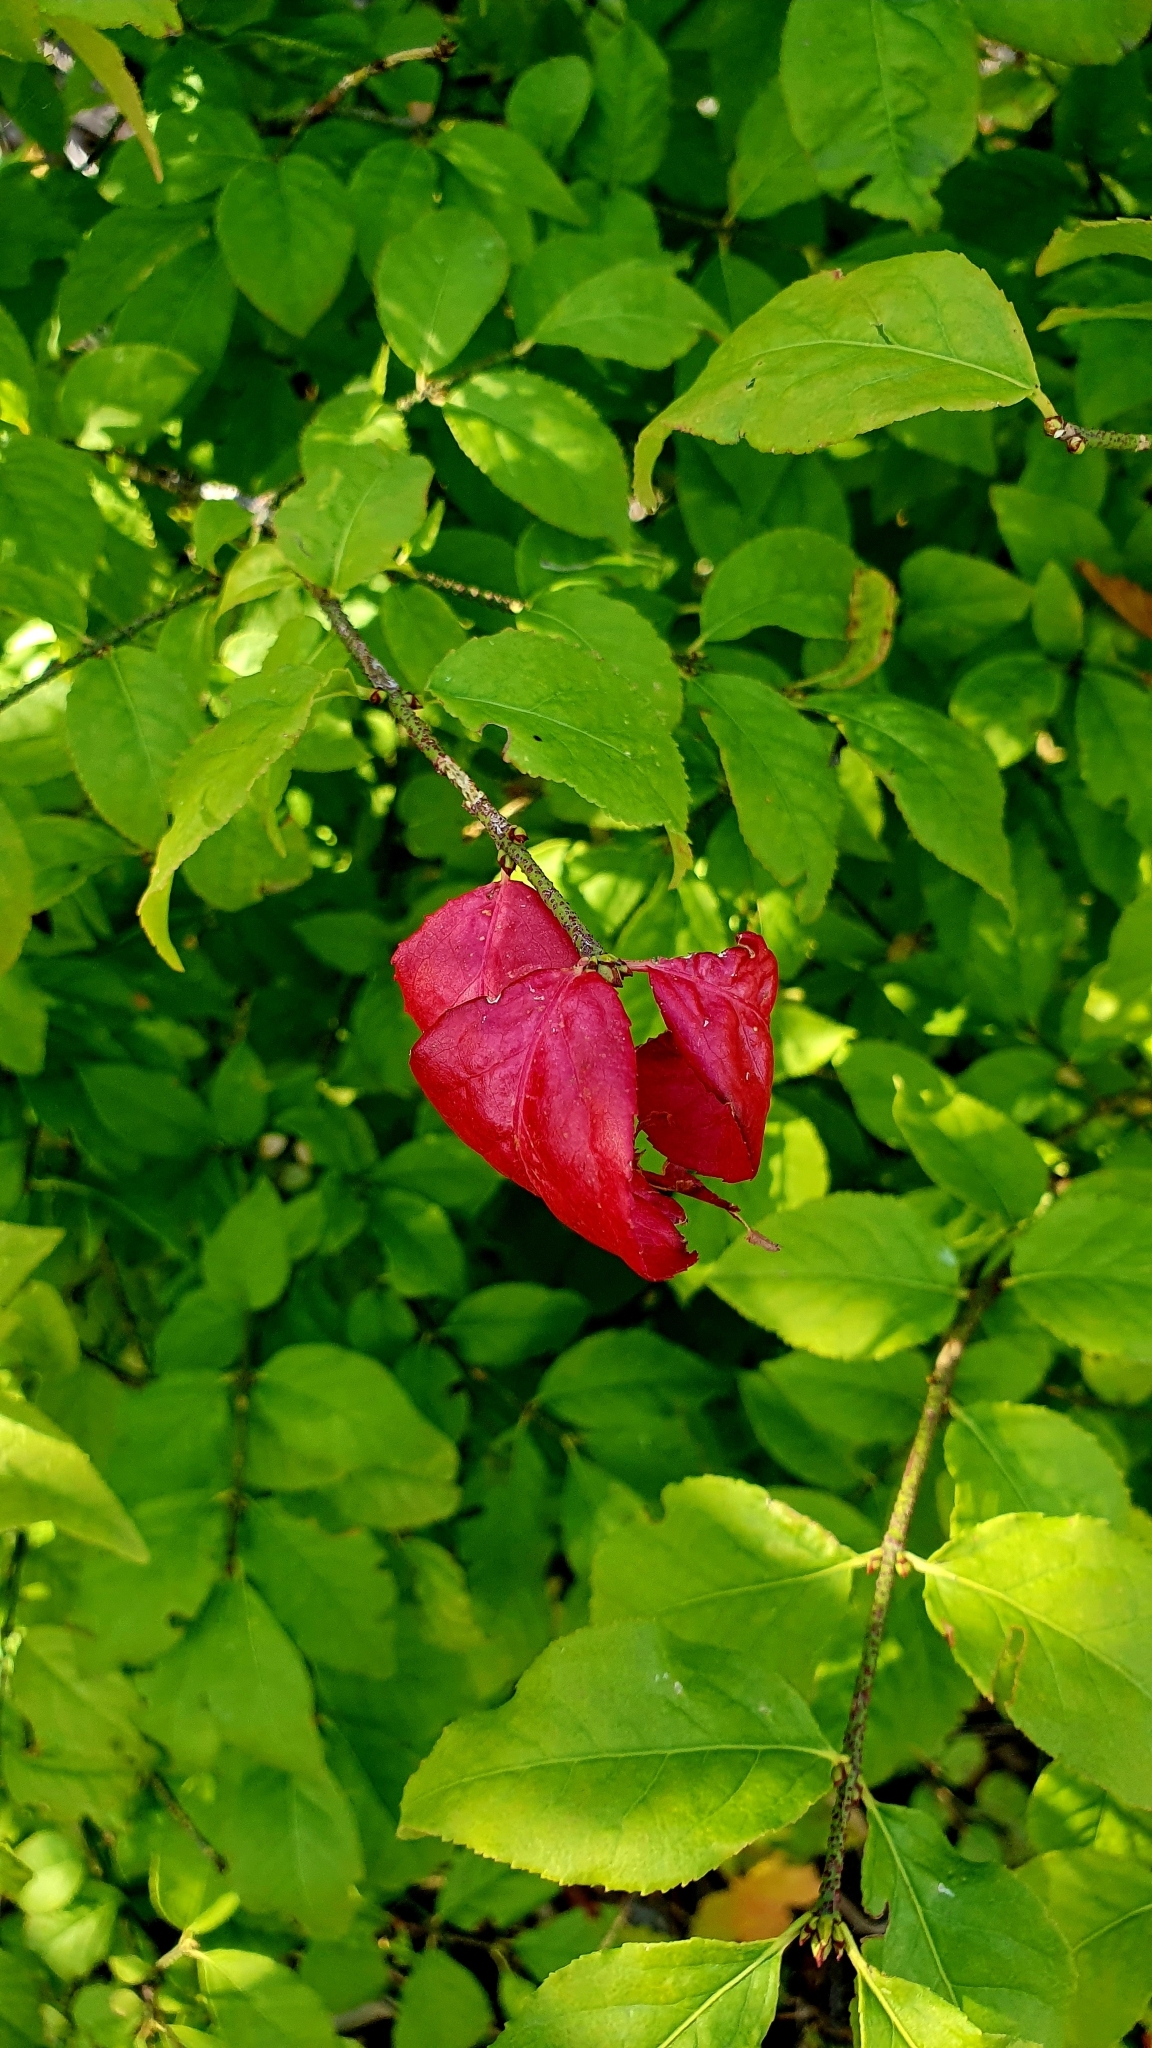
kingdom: Plantae
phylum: Tracheophyta
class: Magnoliopsida
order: Celastrales
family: Celastraceae
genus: Euonymus
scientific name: Euonymus verrucosus
